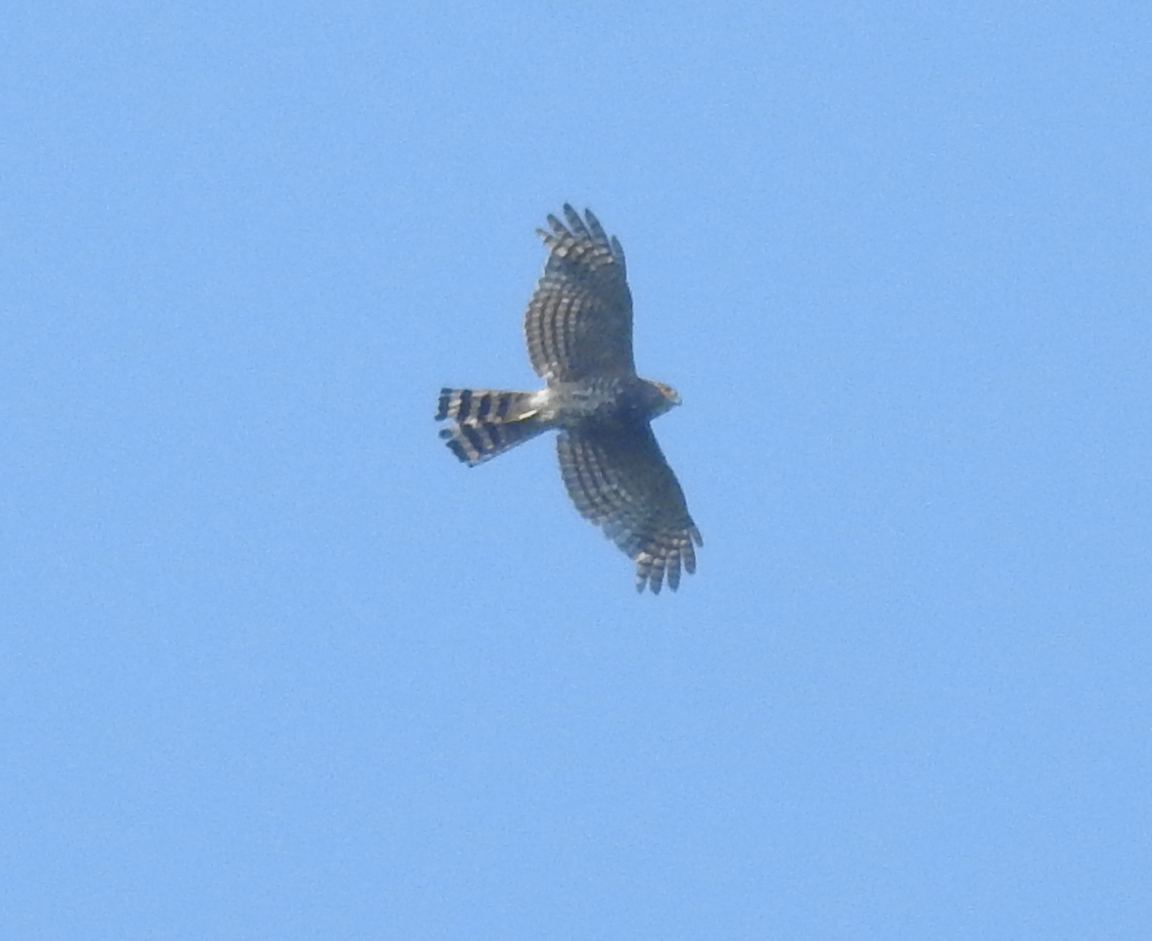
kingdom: Animalia
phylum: Chordata
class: Aves
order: Accipitriformes
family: Accipitridae
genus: Accipiter
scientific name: Accipiter virgatus
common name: Besra
